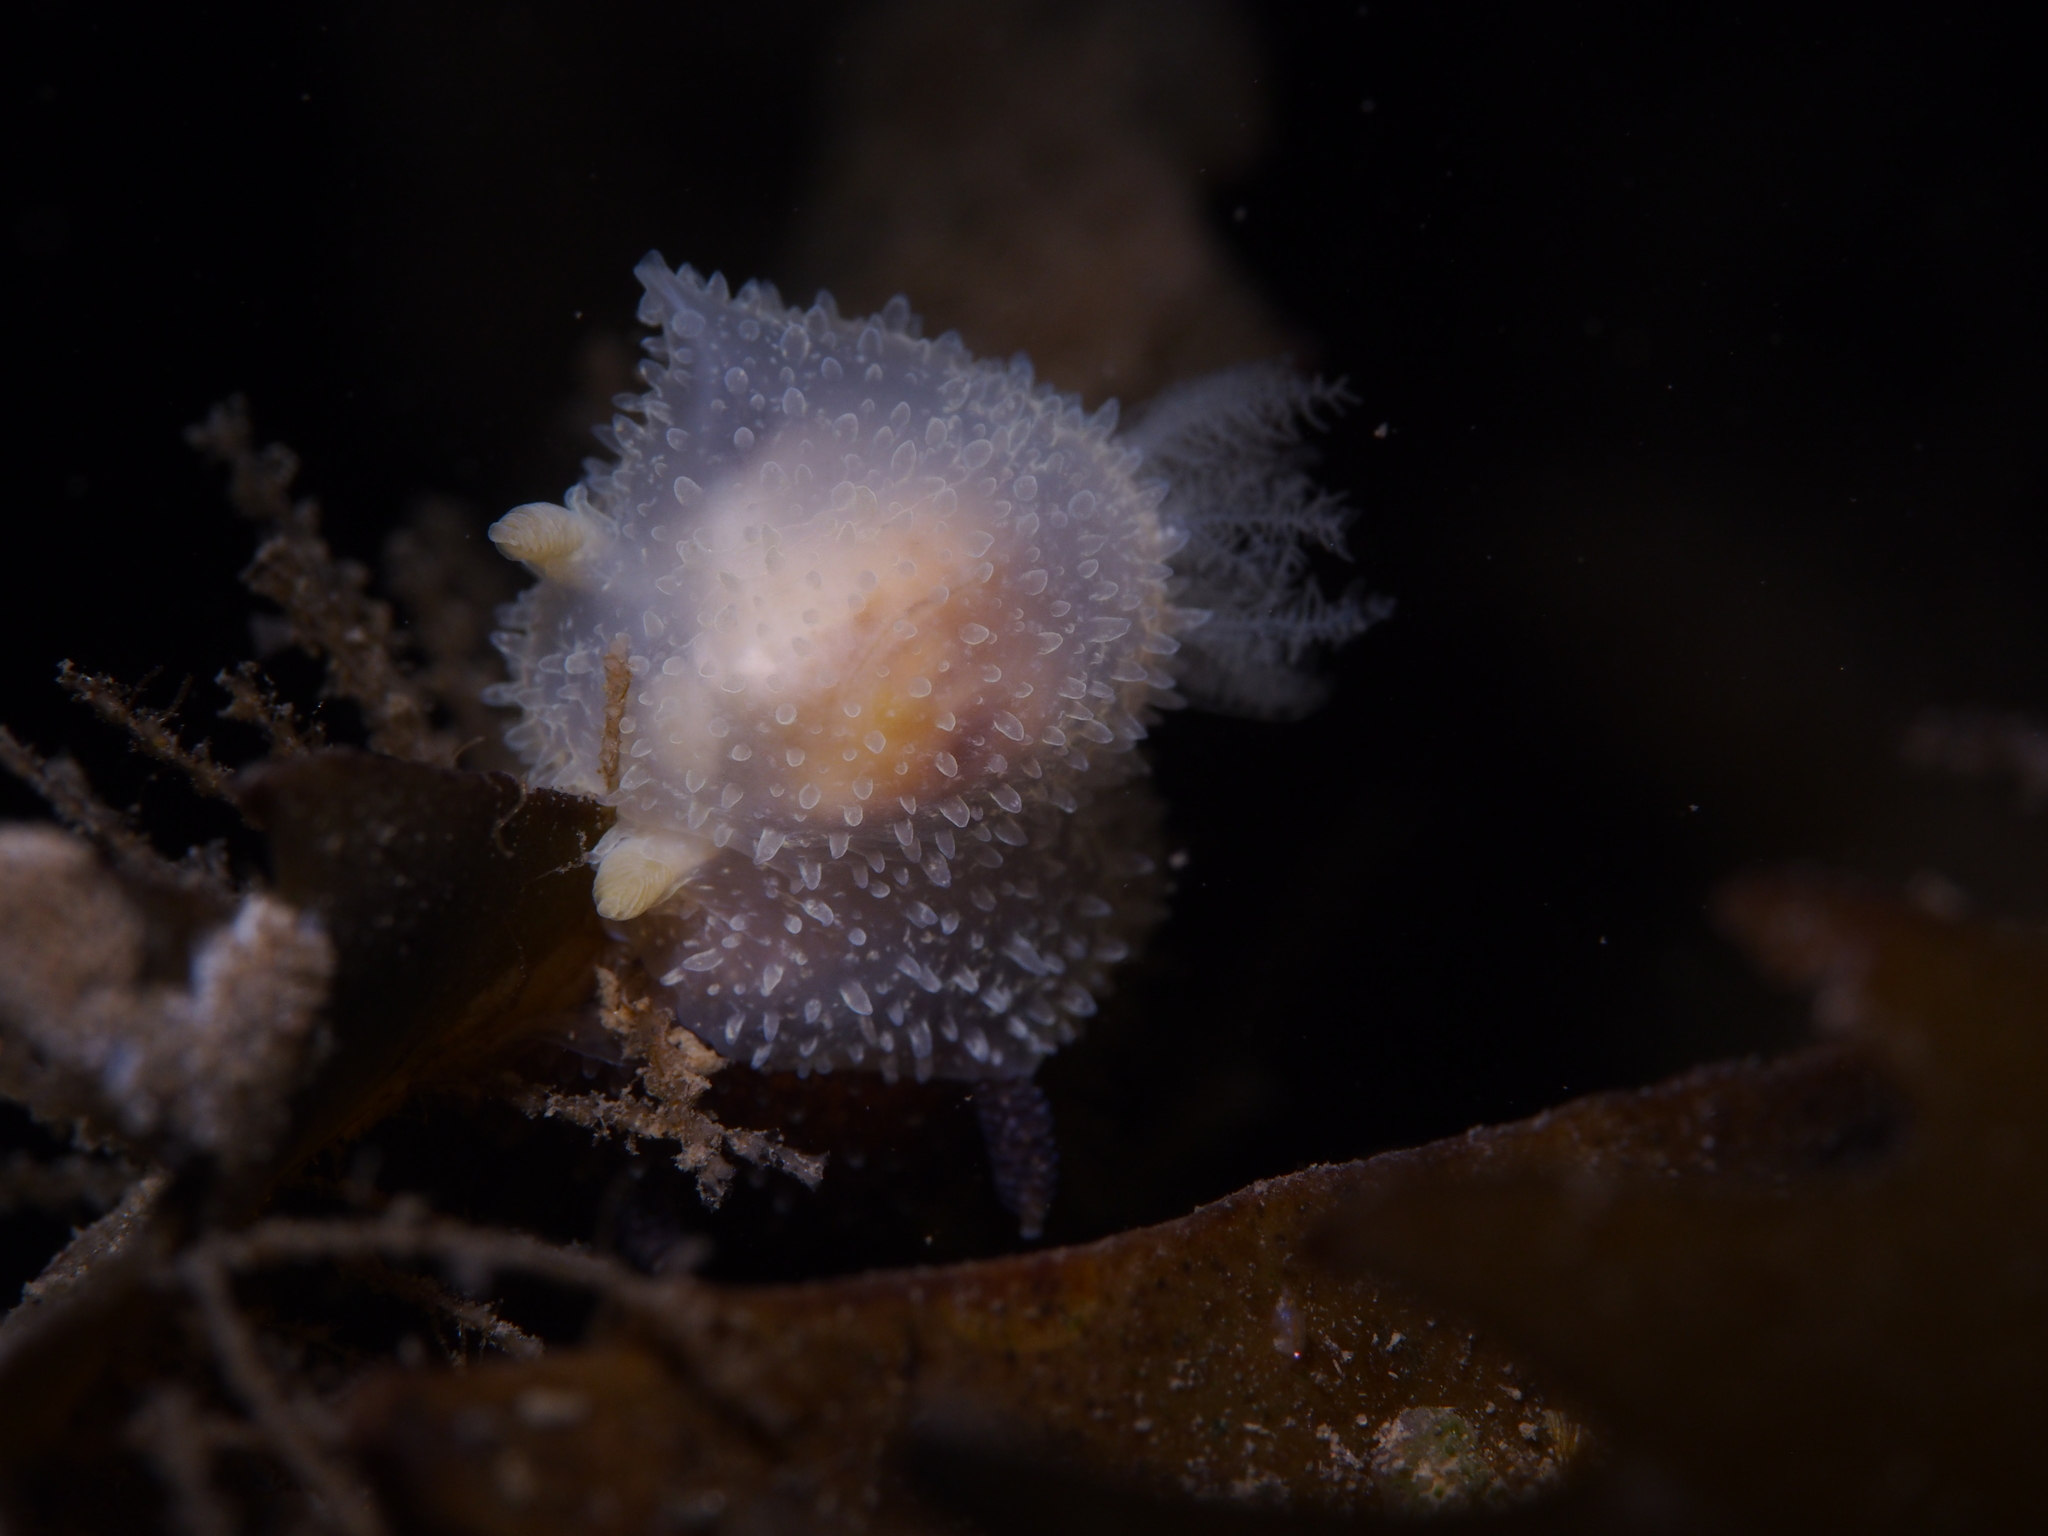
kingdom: Animalia
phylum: Mollusca
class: Gastropoda
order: Nudibranchia
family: Onchidorididae
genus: Acanthodoris
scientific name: Acanthodoris pilosa
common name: Hairy spiny doris
